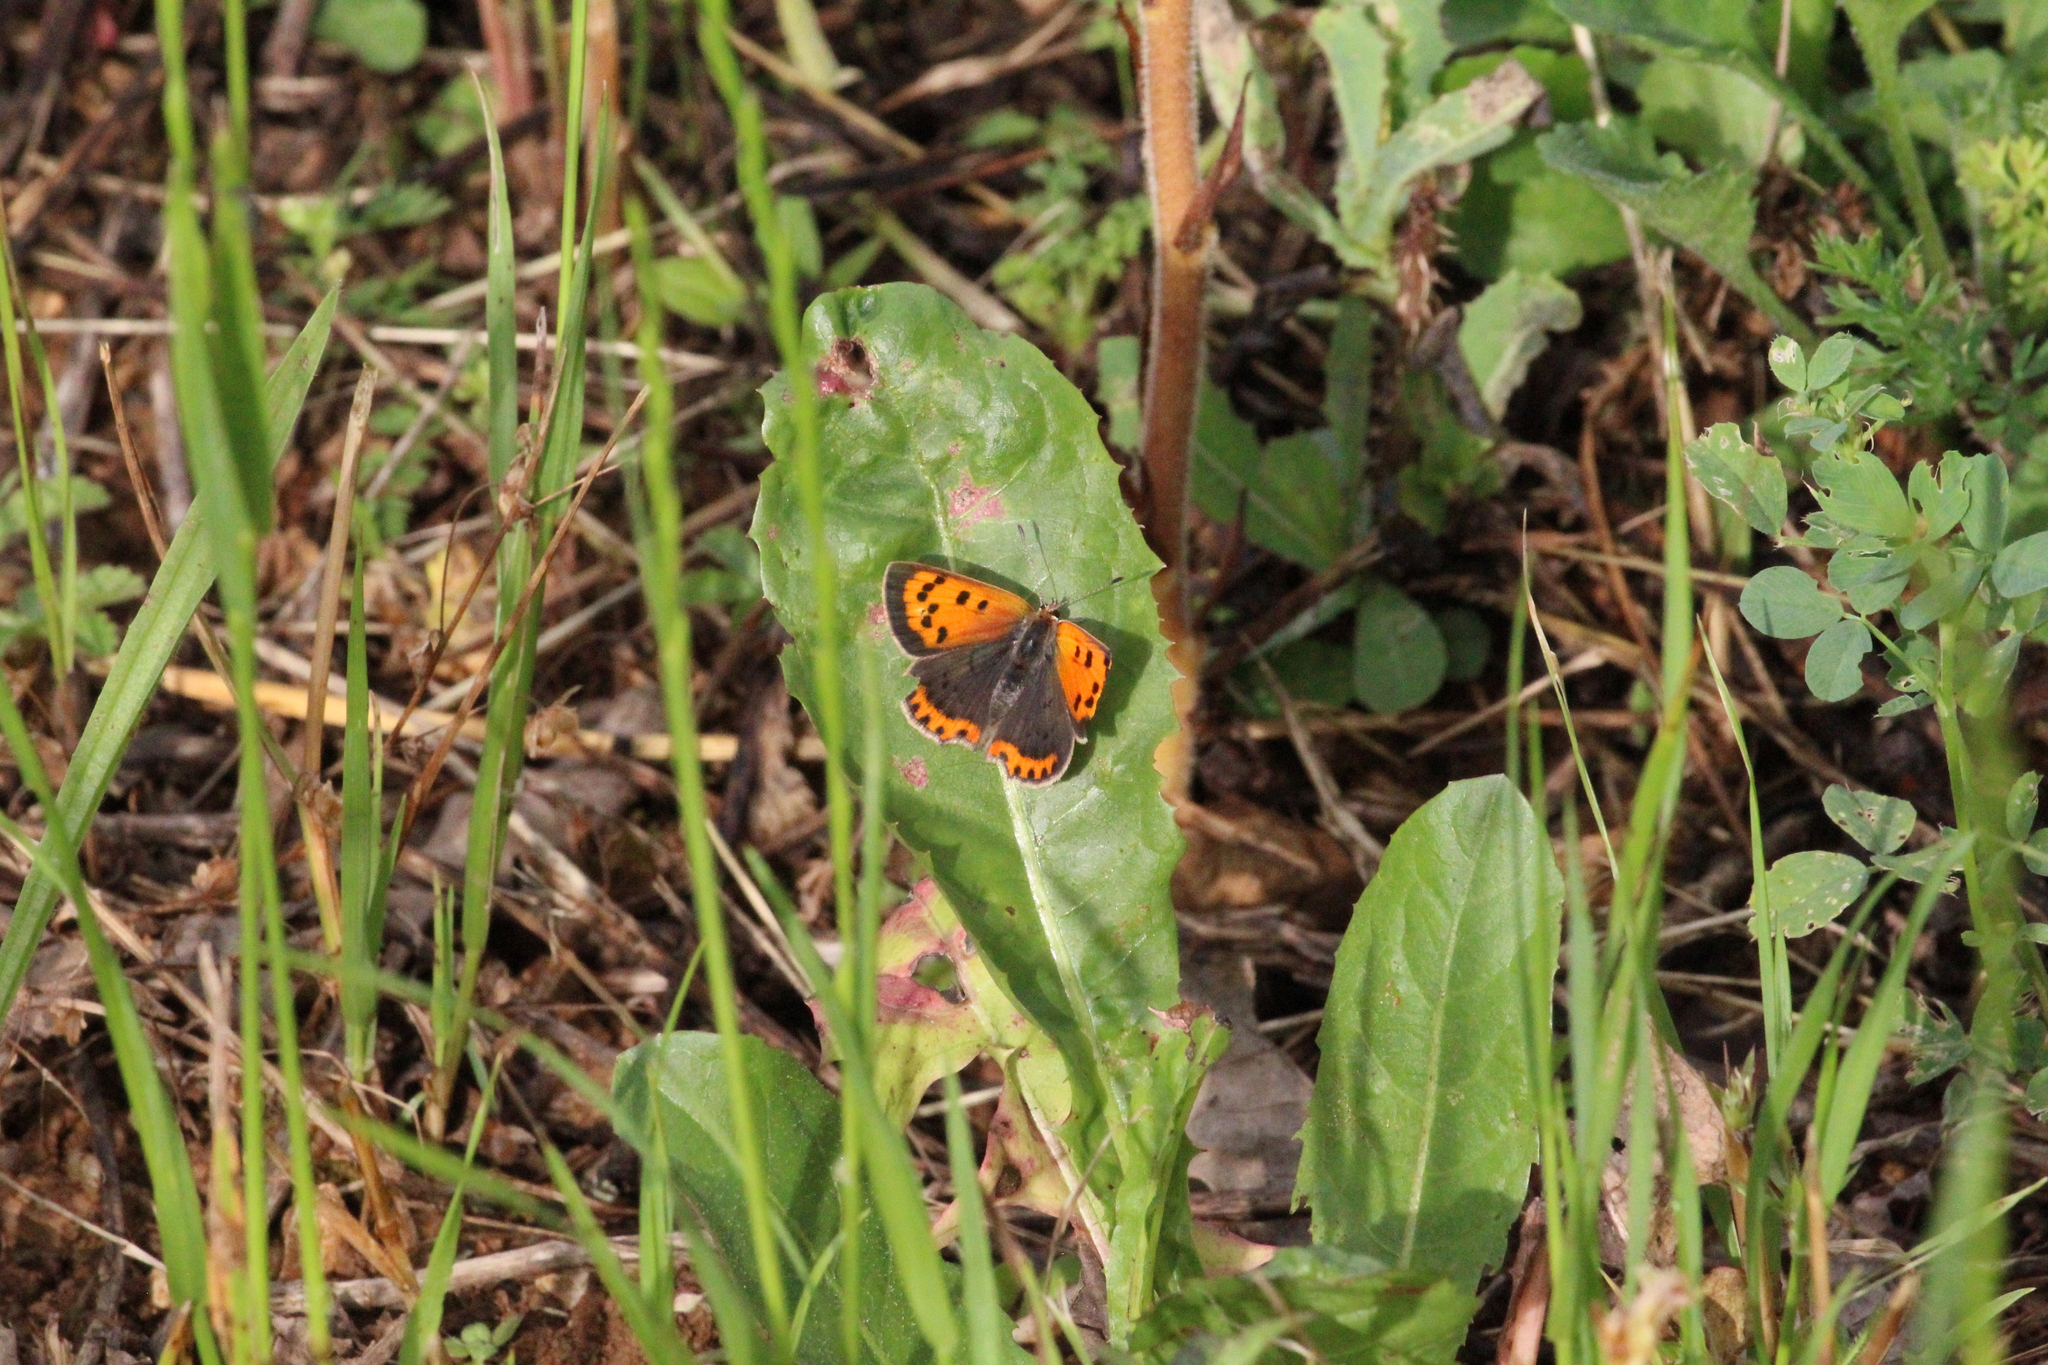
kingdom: Animalia
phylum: Arthropoda
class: Insecta
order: Lepidoptera
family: Lycaenidae
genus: Lycaena
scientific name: Lycaena phlaeas
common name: Small copper
